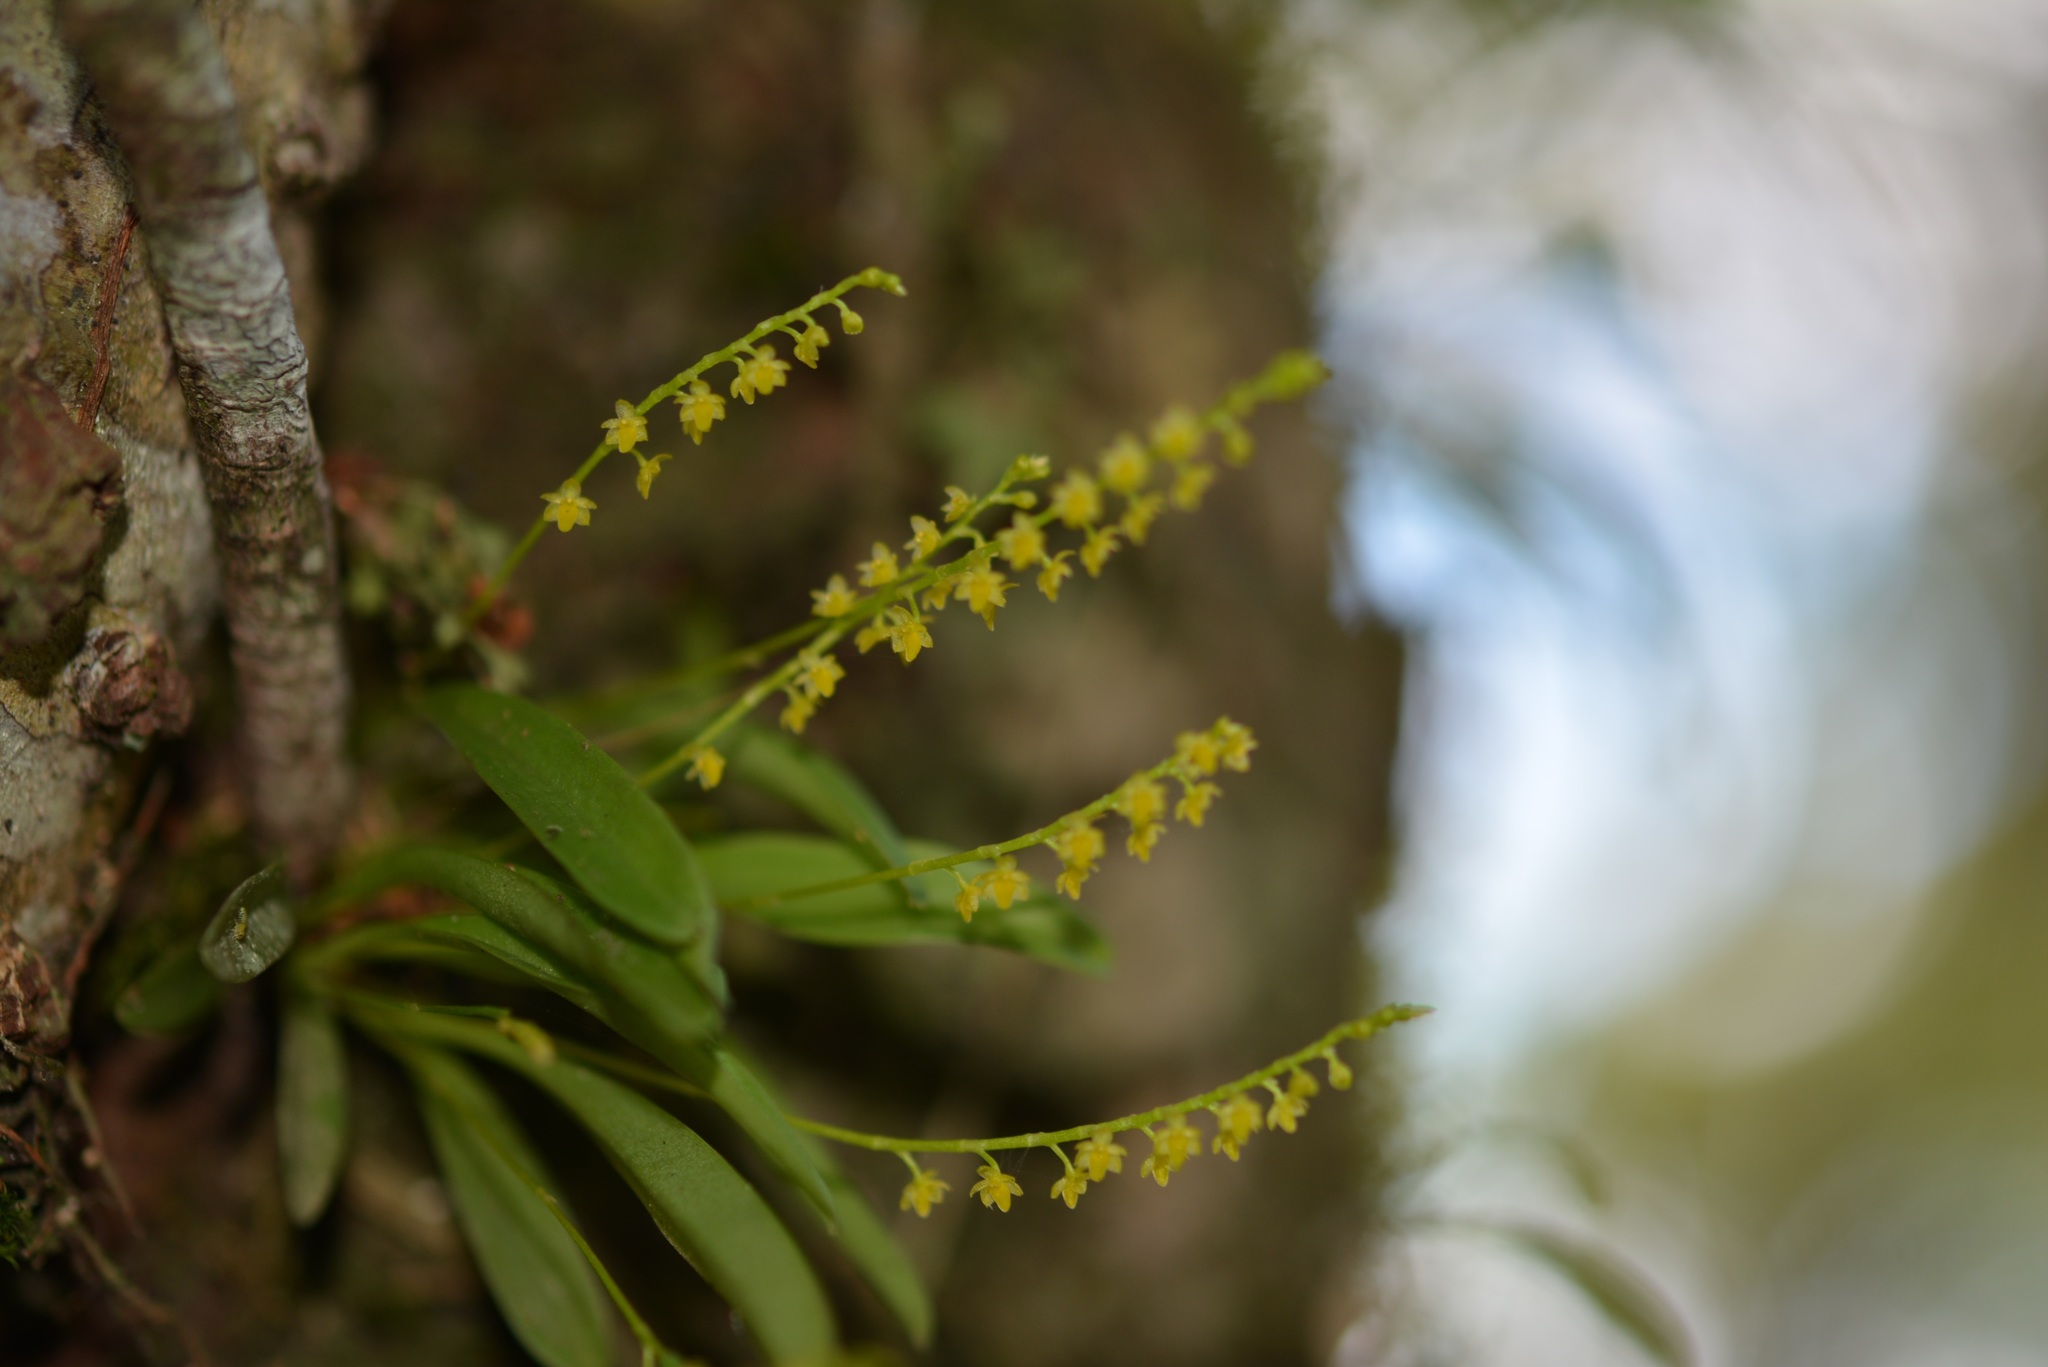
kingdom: Plantae
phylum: Tracheophyta
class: Liliopsida
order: Asparagales
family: Orchidaceae
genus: Platystele
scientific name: Platystele ovatilabia
